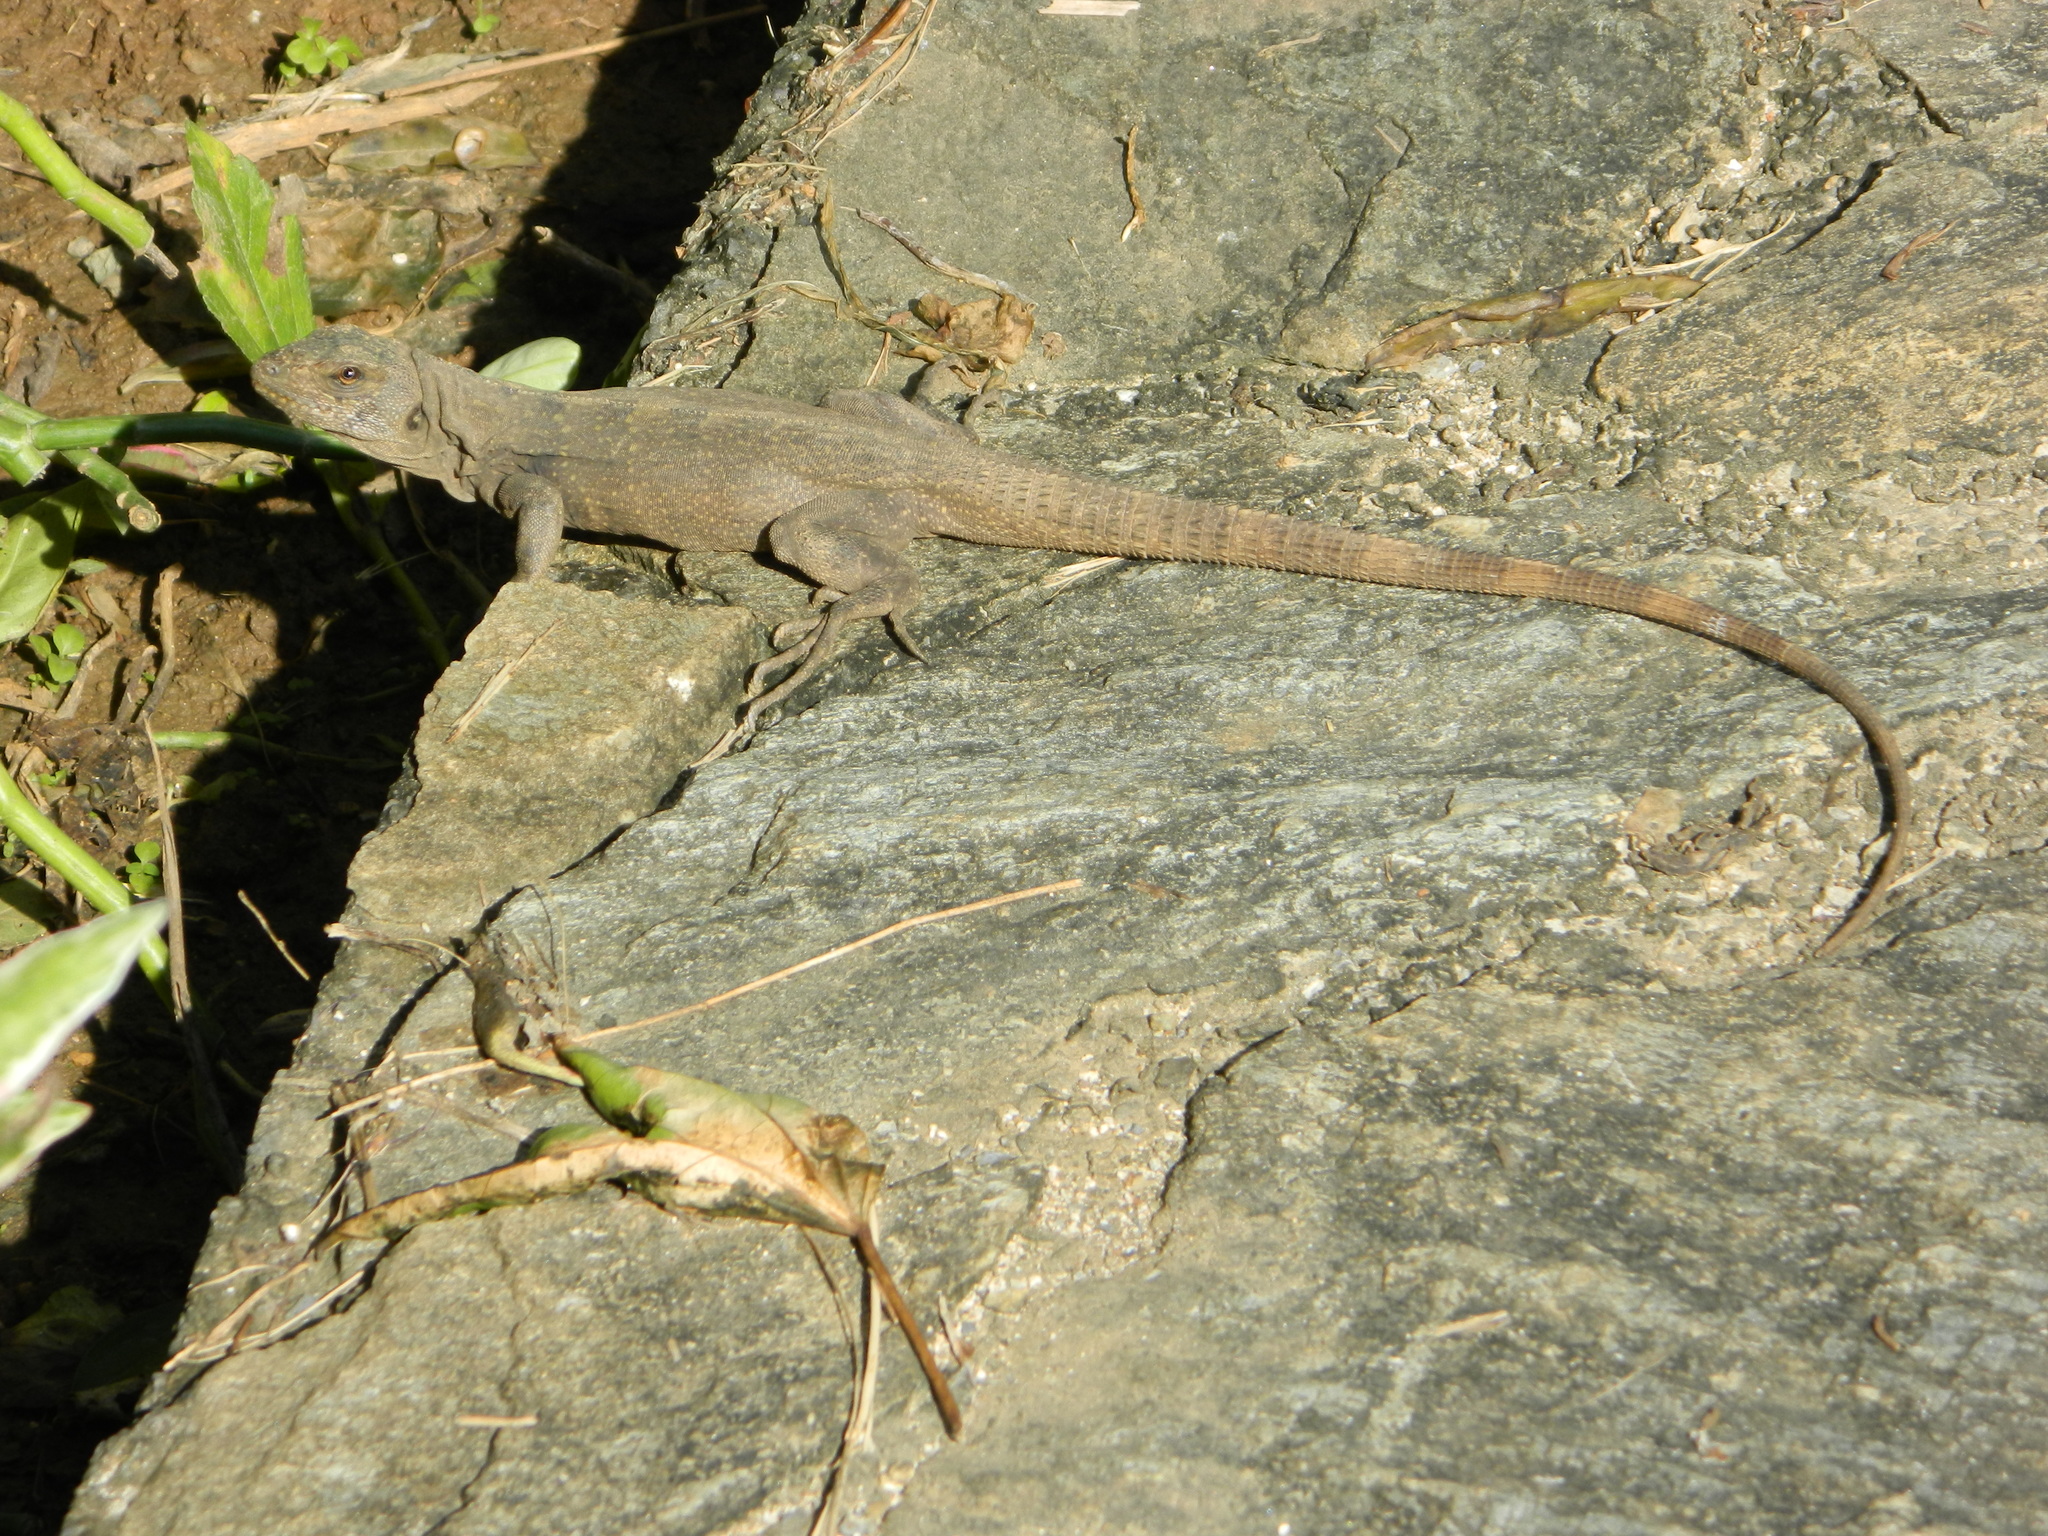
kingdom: Animalia
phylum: Chordata
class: Squamata
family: Iguanidae
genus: Ctenosaura
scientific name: Ctenosaura oedirhina
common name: Roatan spiny-tailed iguana
